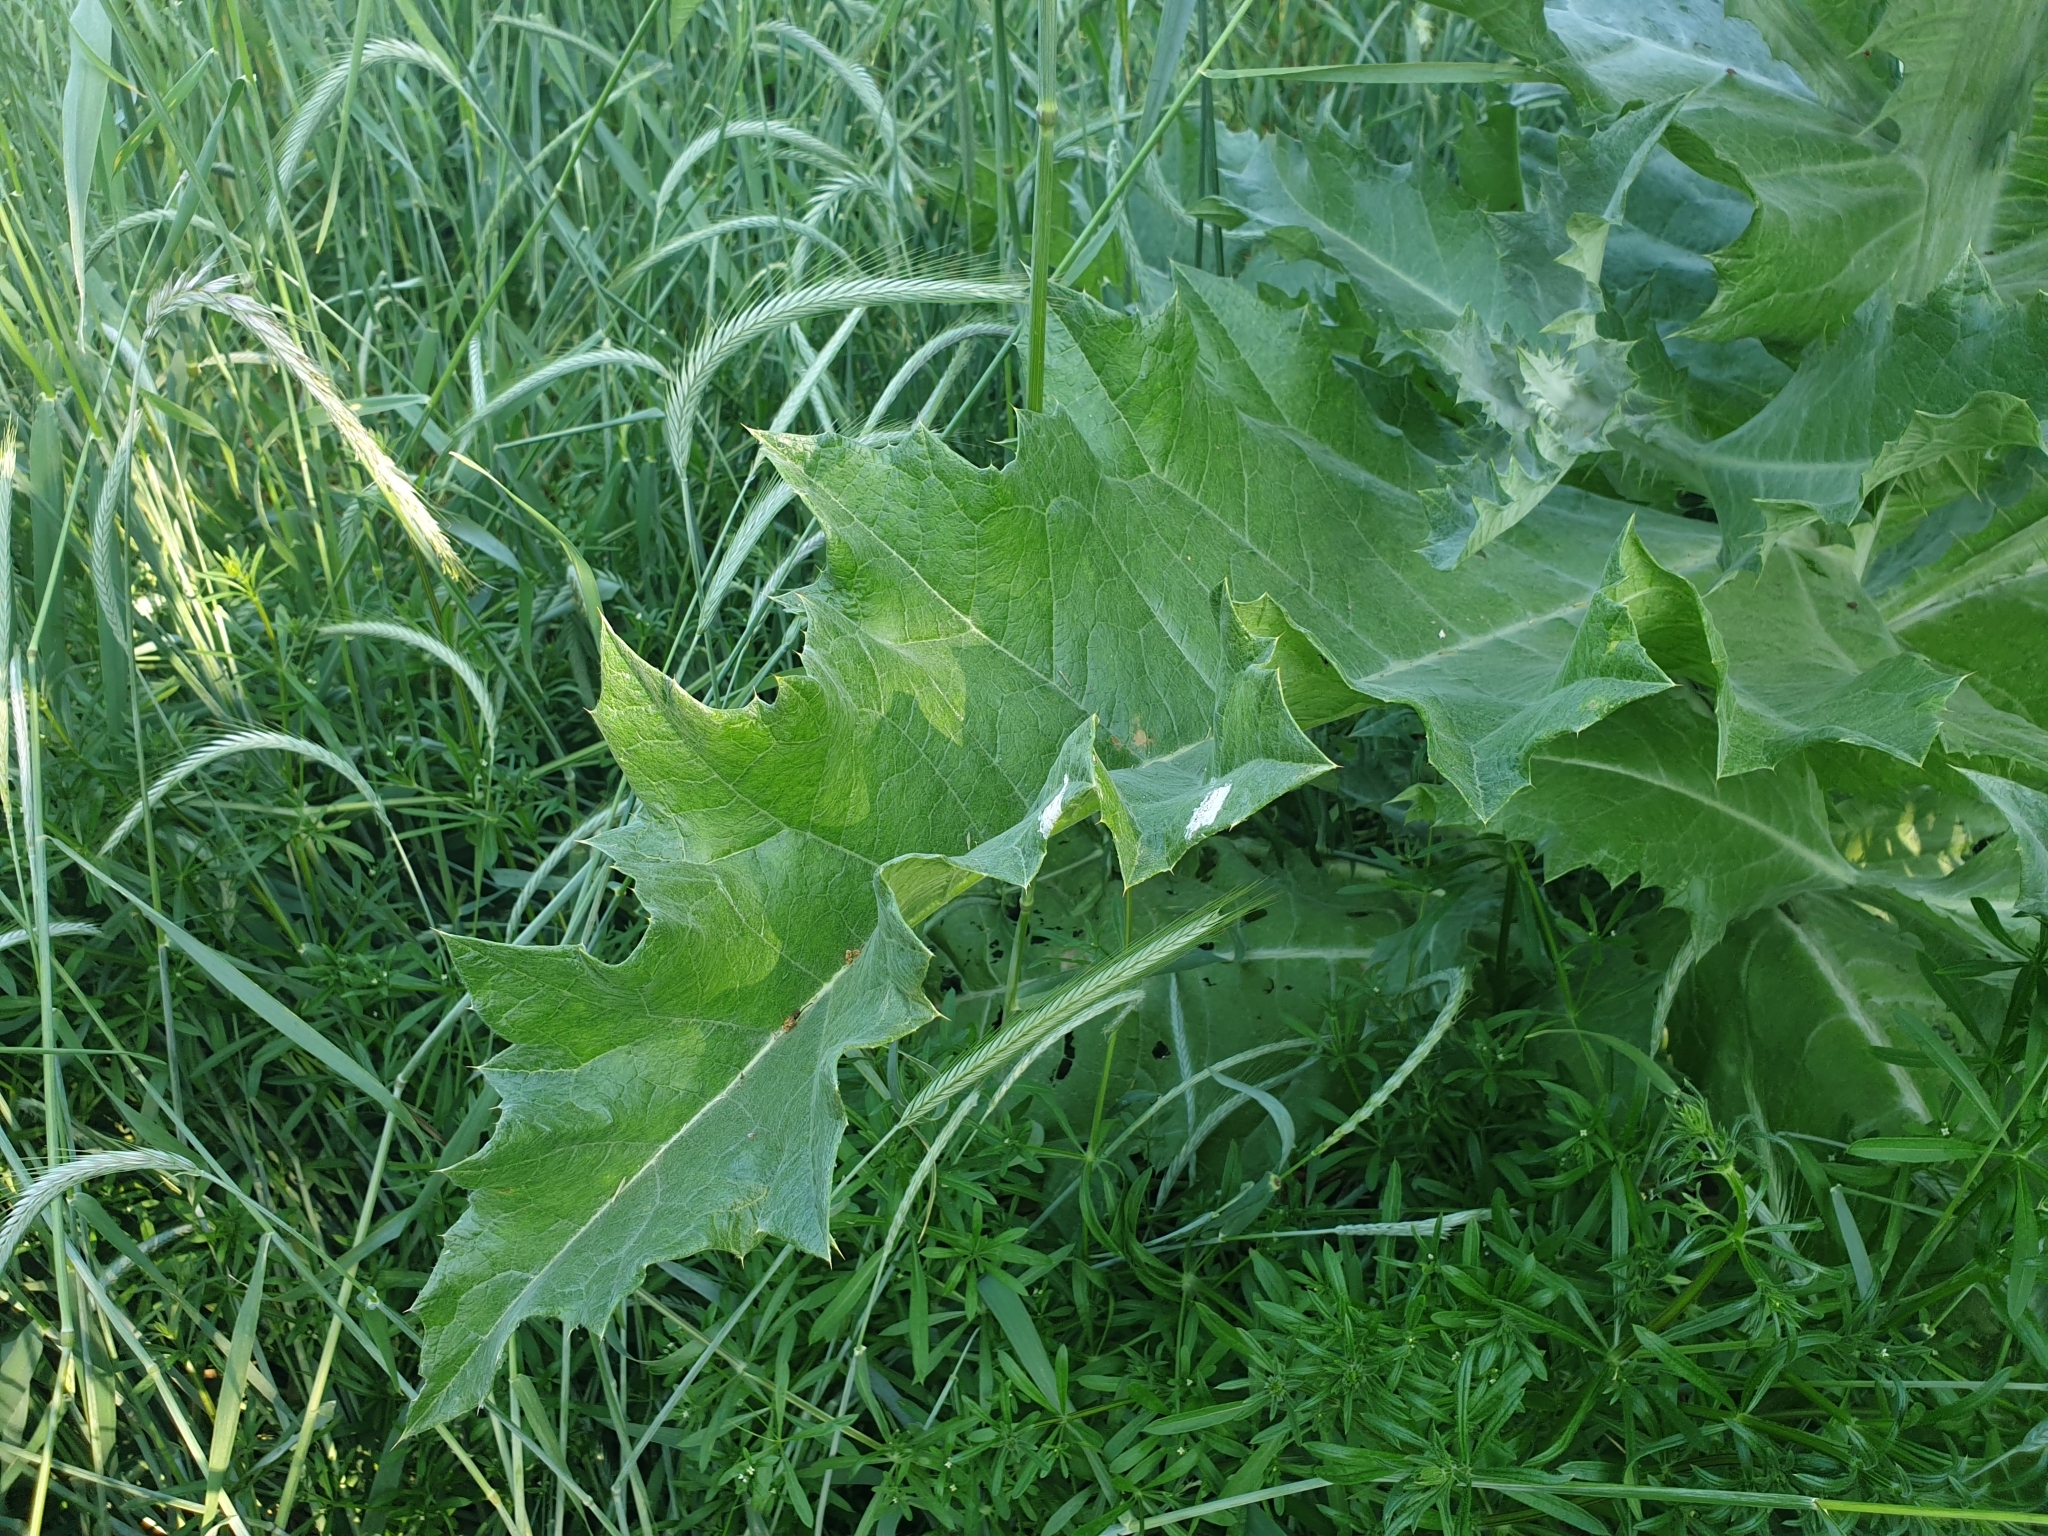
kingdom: Plantae
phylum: Tracheophyta
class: Magnoliopsida
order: Asterales
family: Asteraceae
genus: Onopordum
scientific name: Onopordum acanthium
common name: Scotch thistle
